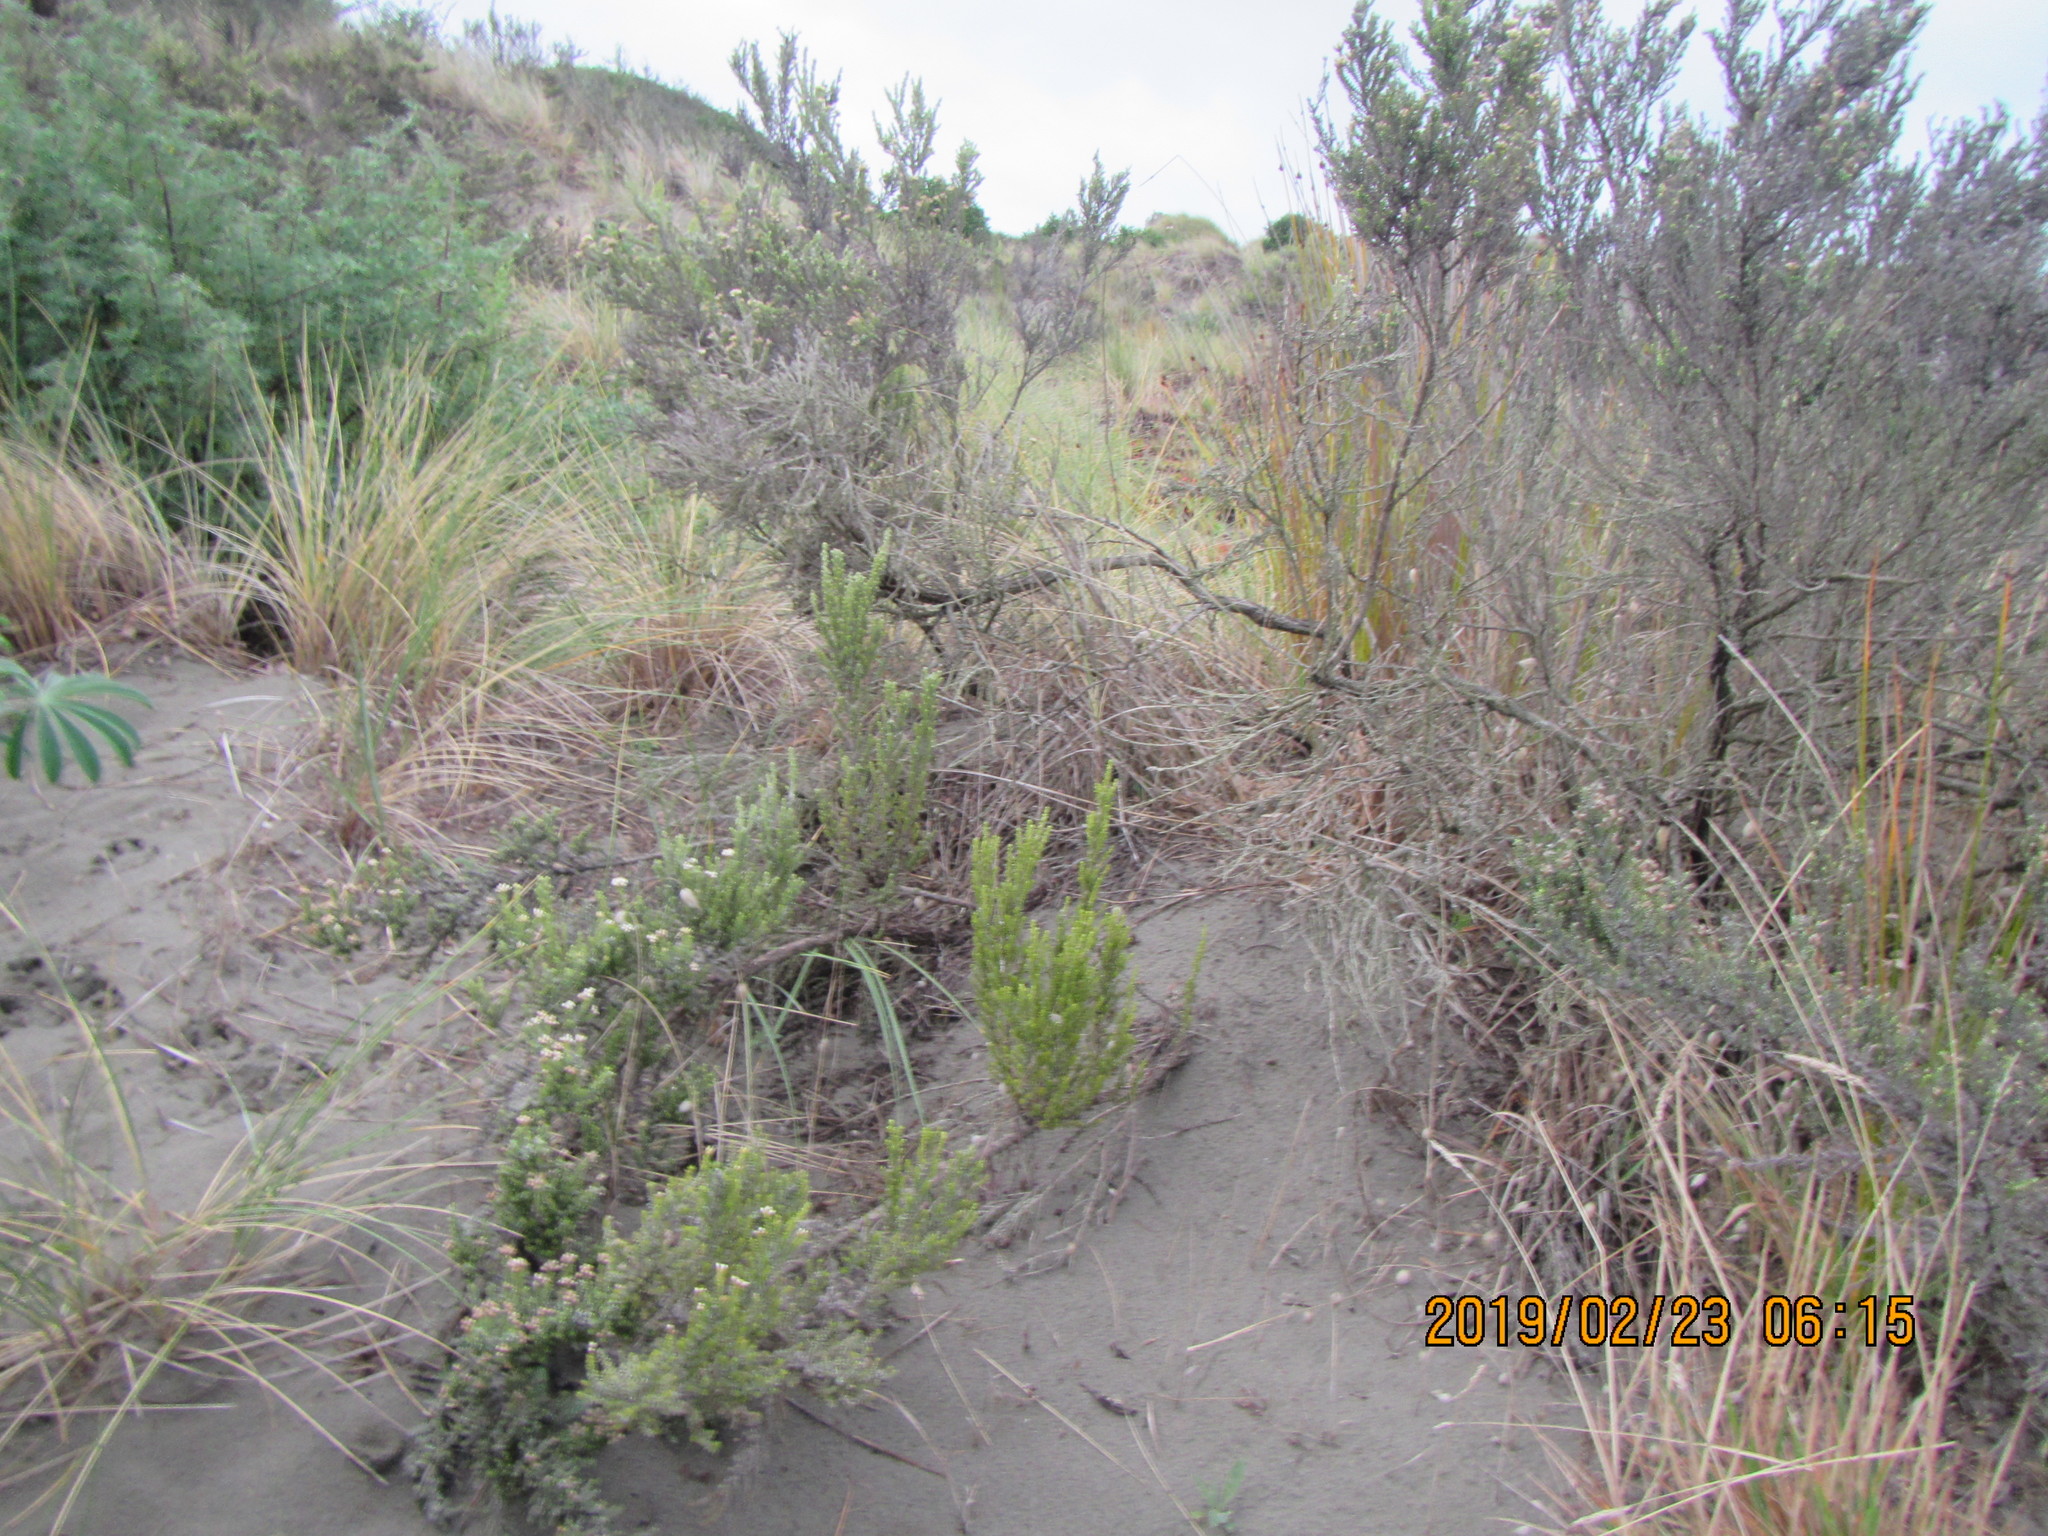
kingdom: Plantae
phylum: Tracheophyta
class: Magnoliopsida
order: Asterales
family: Asteraceae
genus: Ozothamnus
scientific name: Ozothamnus leptophyllus
